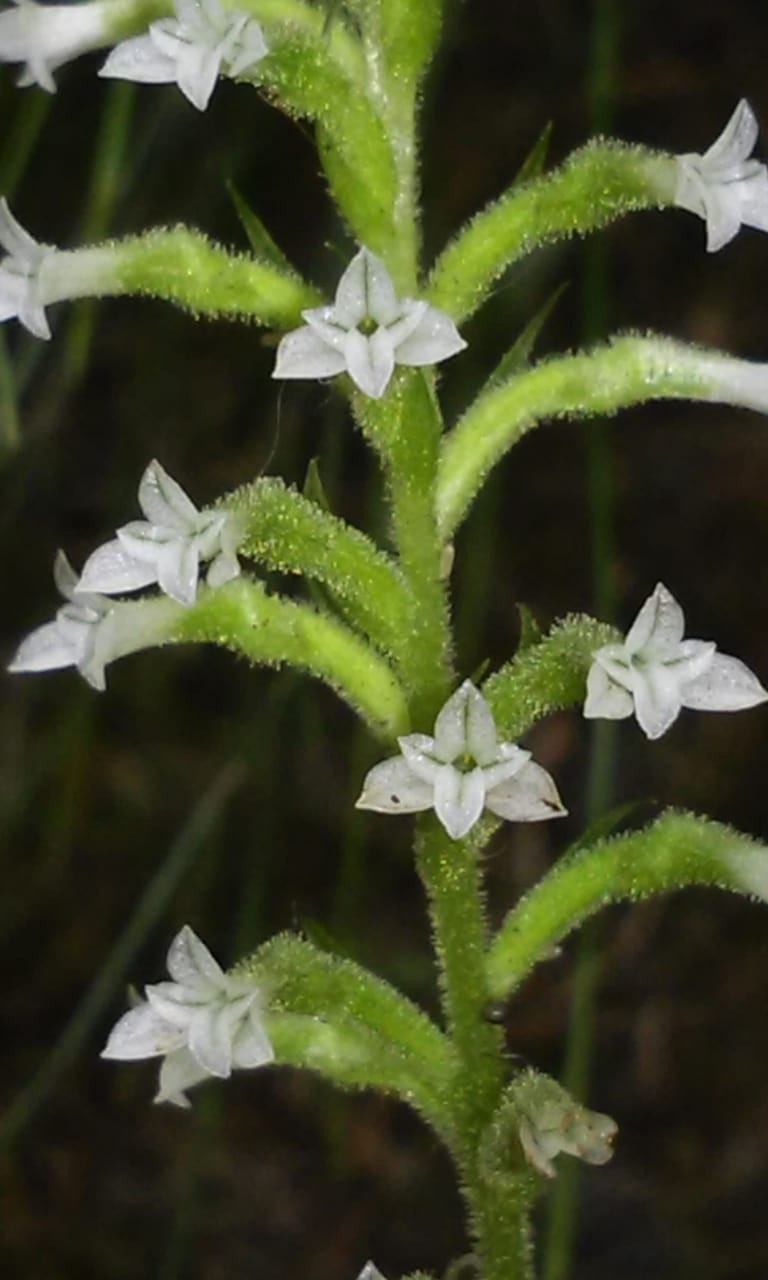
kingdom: Plantae
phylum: Tracheophyta
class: Liliopsida
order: Asparagales
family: Orchidaceae
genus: Beloglottis
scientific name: Beloglottis costaricensis
